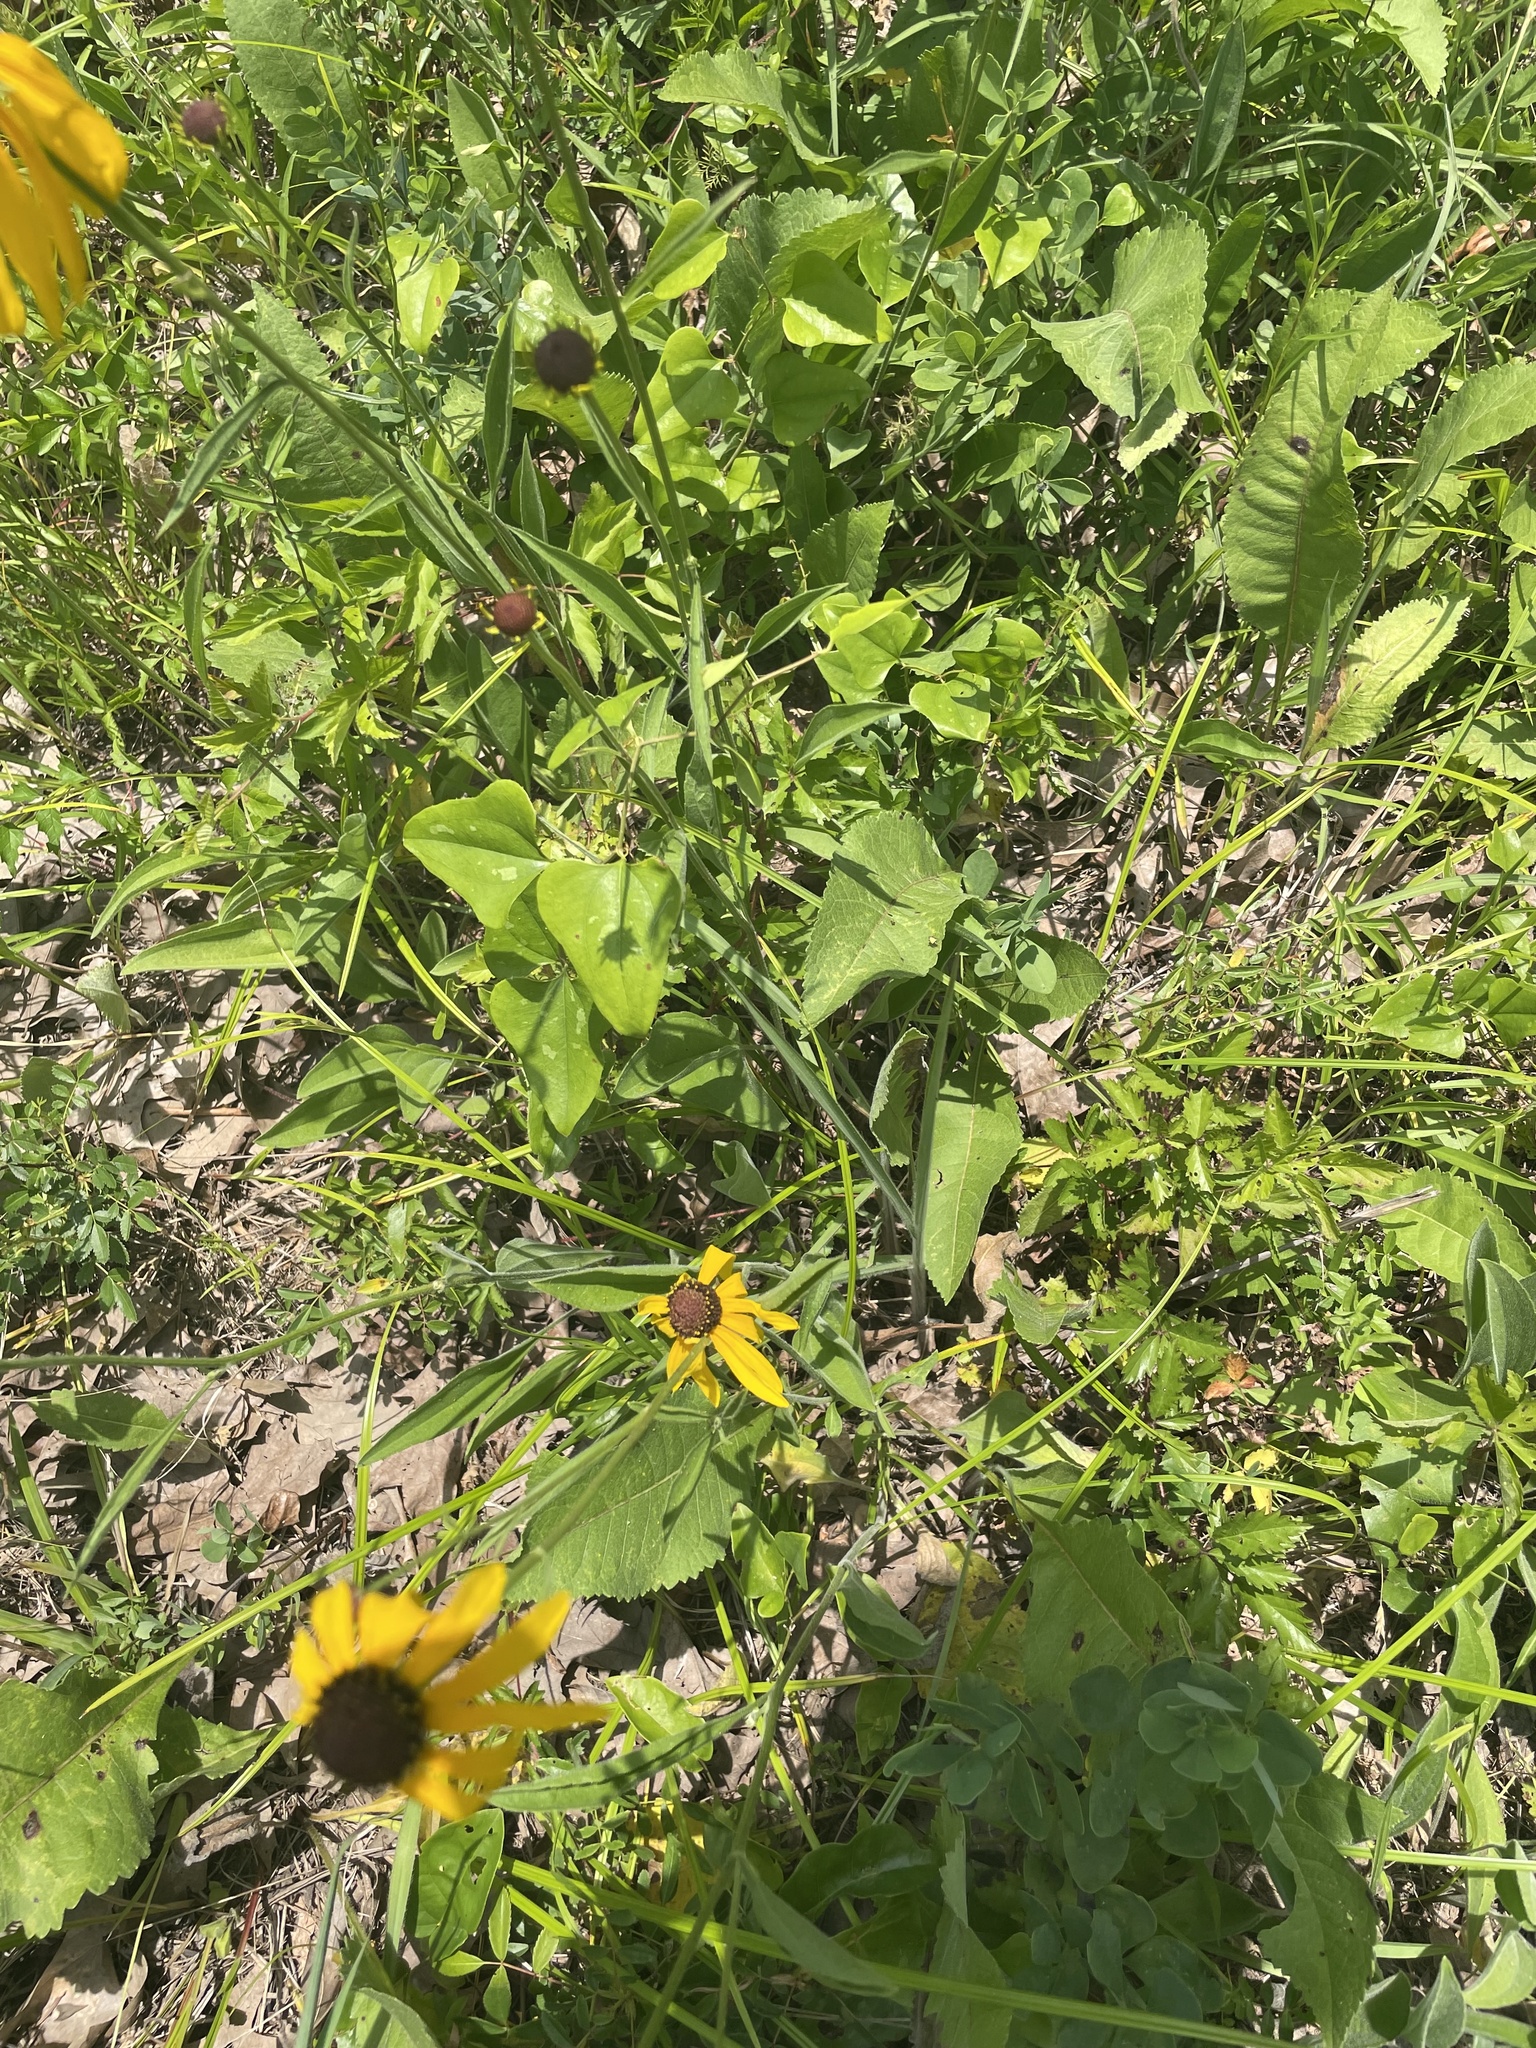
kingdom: Plantae
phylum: Tracheophyta
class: Magnoliopsida
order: Asterales
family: Asteraceae
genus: Rudbeckia
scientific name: Rudbeckia grandiflora
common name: Large-flowered coneflower
